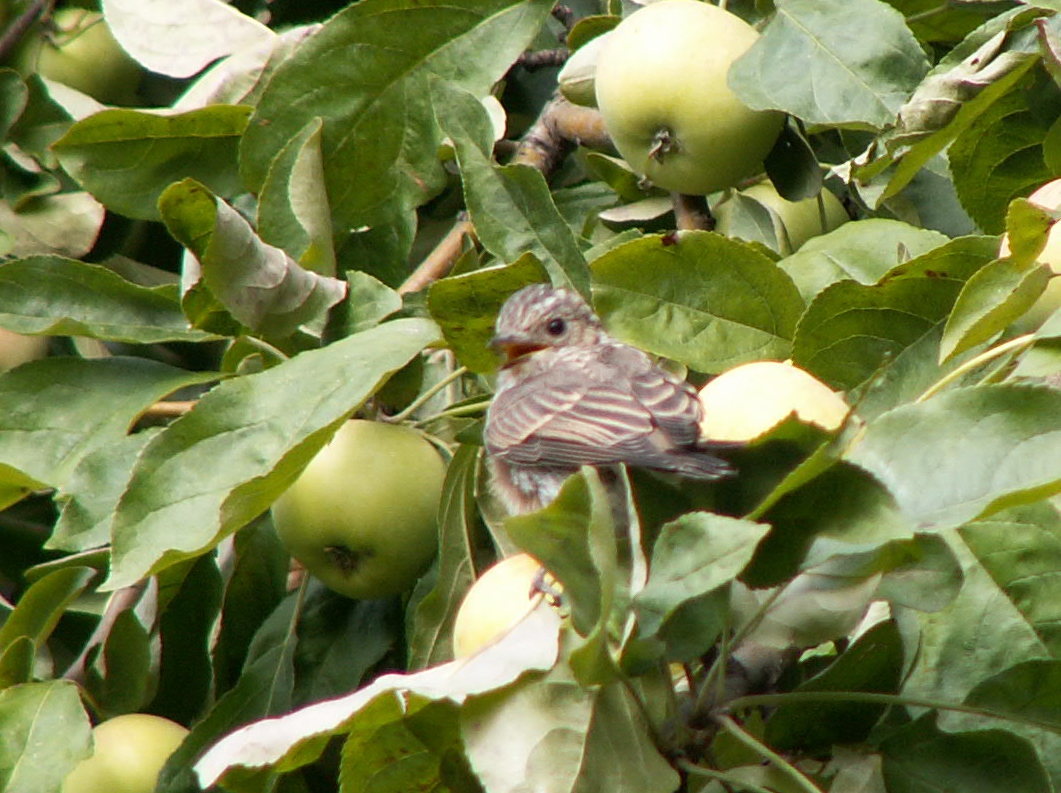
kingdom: Animalia
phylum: Chordata
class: Aves
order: Passeriformes
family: Muscicapidae
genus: Muscicapa
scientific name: Muscicapa striata
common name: Spotted flycatcher
